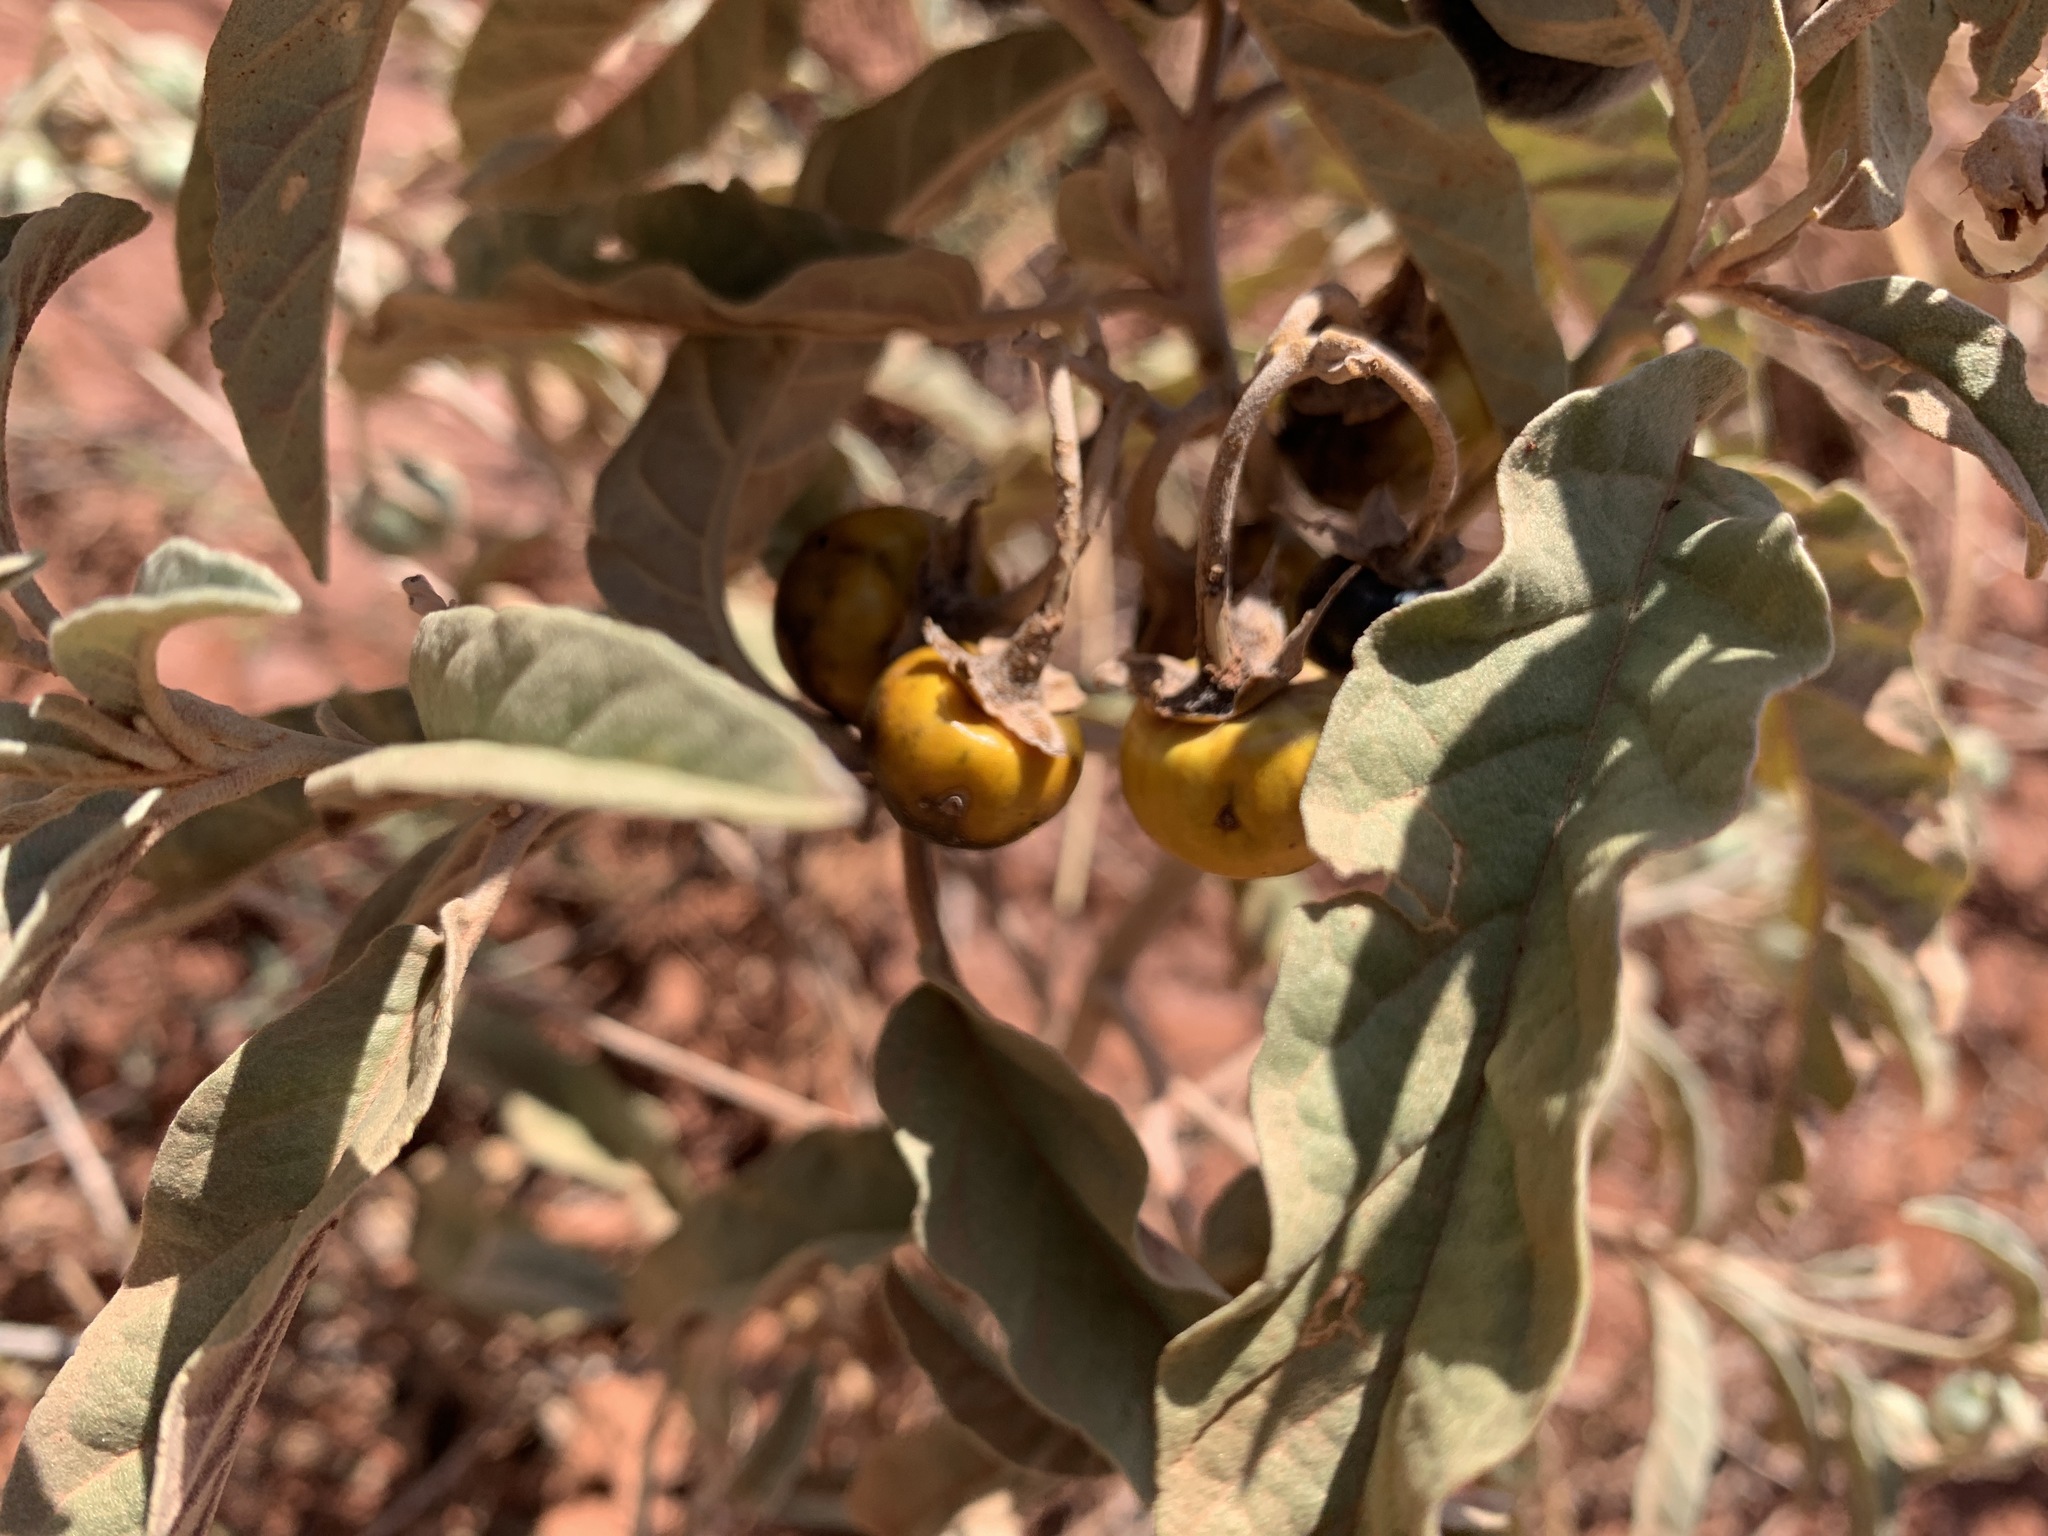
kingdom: Plantae
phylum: Tracheophyta
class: Magnoliopsida
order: Solanales
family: Solanaceae
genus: Solanum
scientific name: Solanum elaeagnifolium
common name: Silverleaf nightshade
